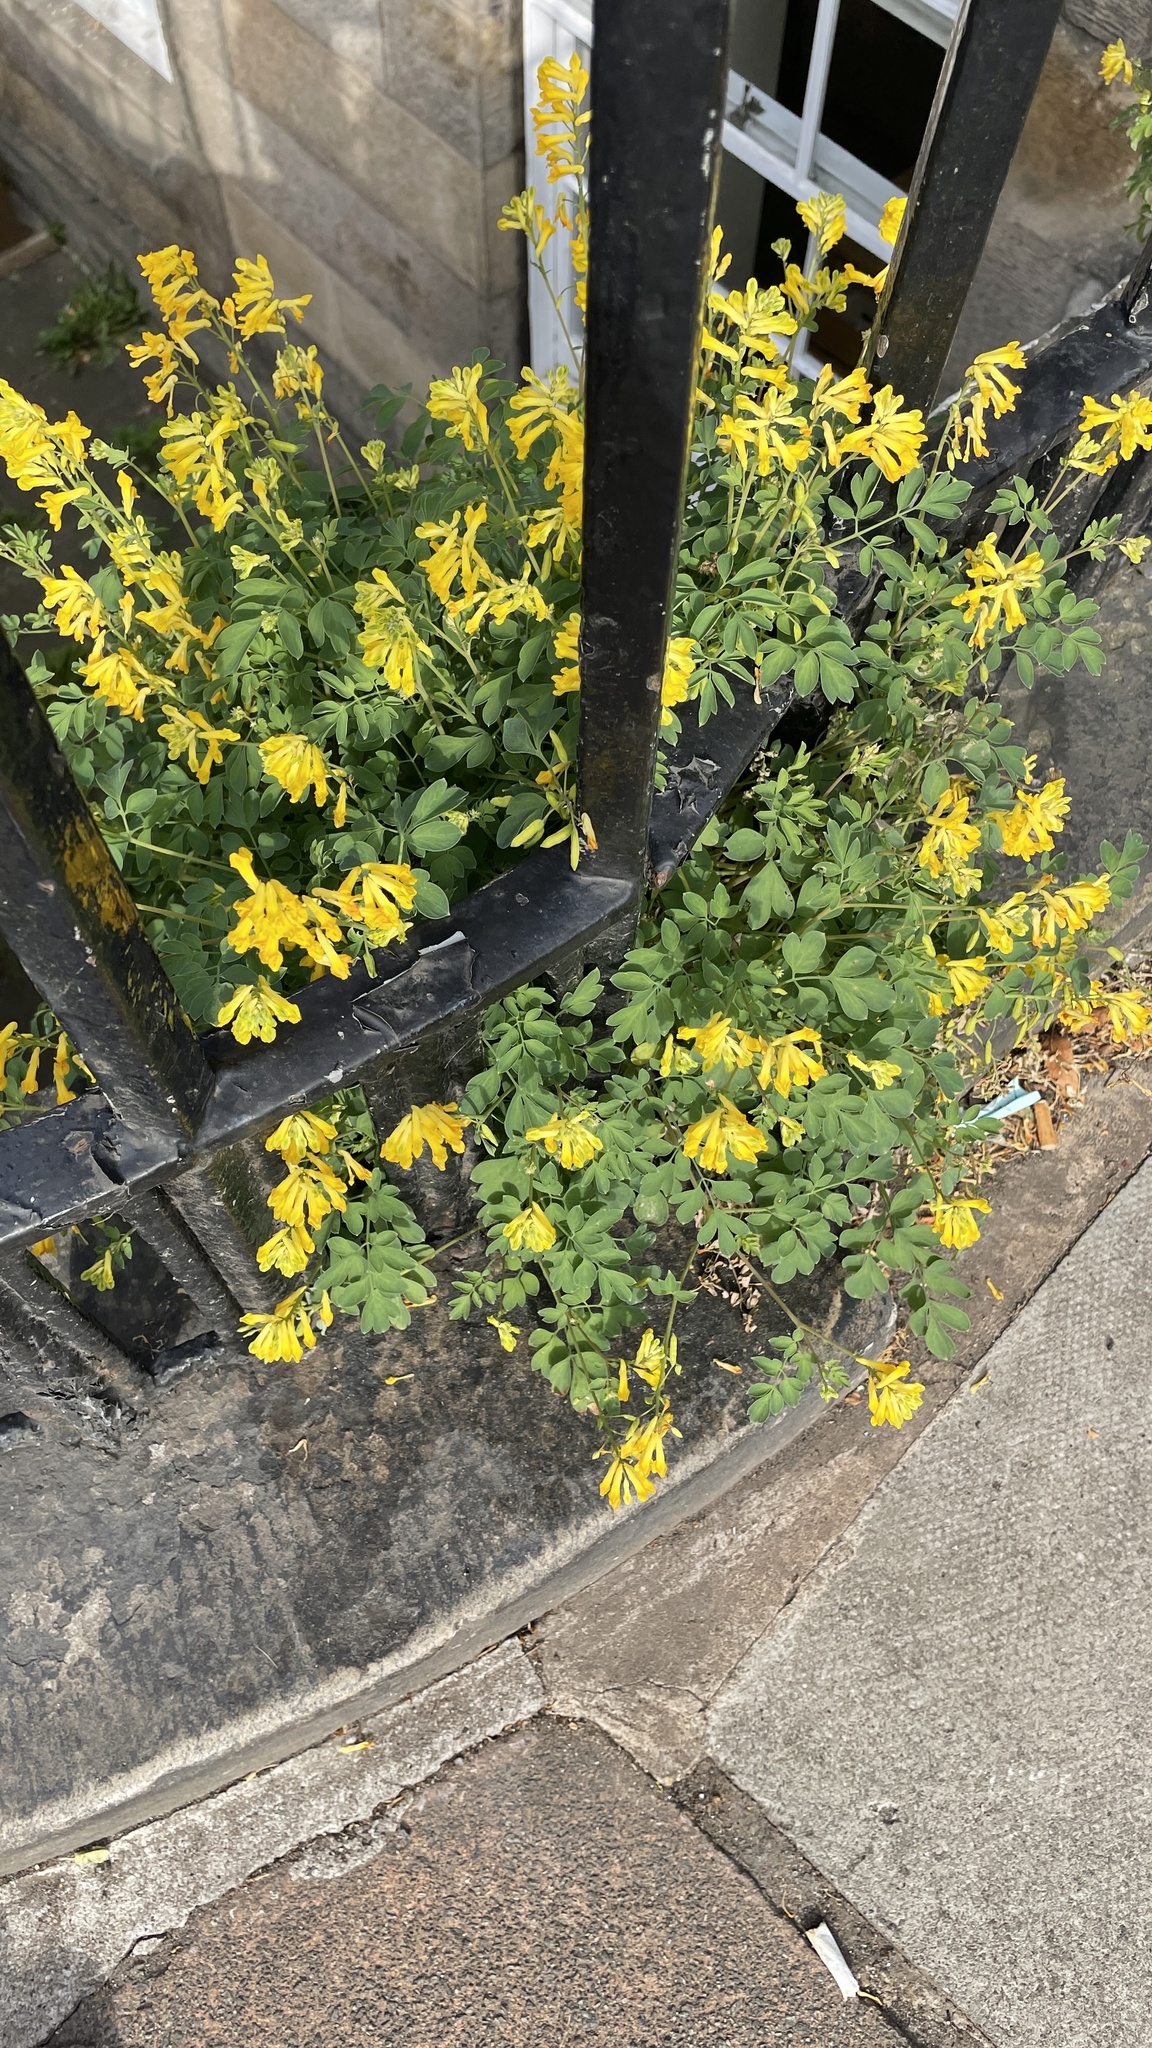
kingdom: Plantae
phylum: Tracheophyta
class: Magnoliopsida
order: Ranunculales
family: Papaveraceae
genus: Pseudofumaria
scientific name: Pseudofumaria lutea
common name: Yellow corydalis
